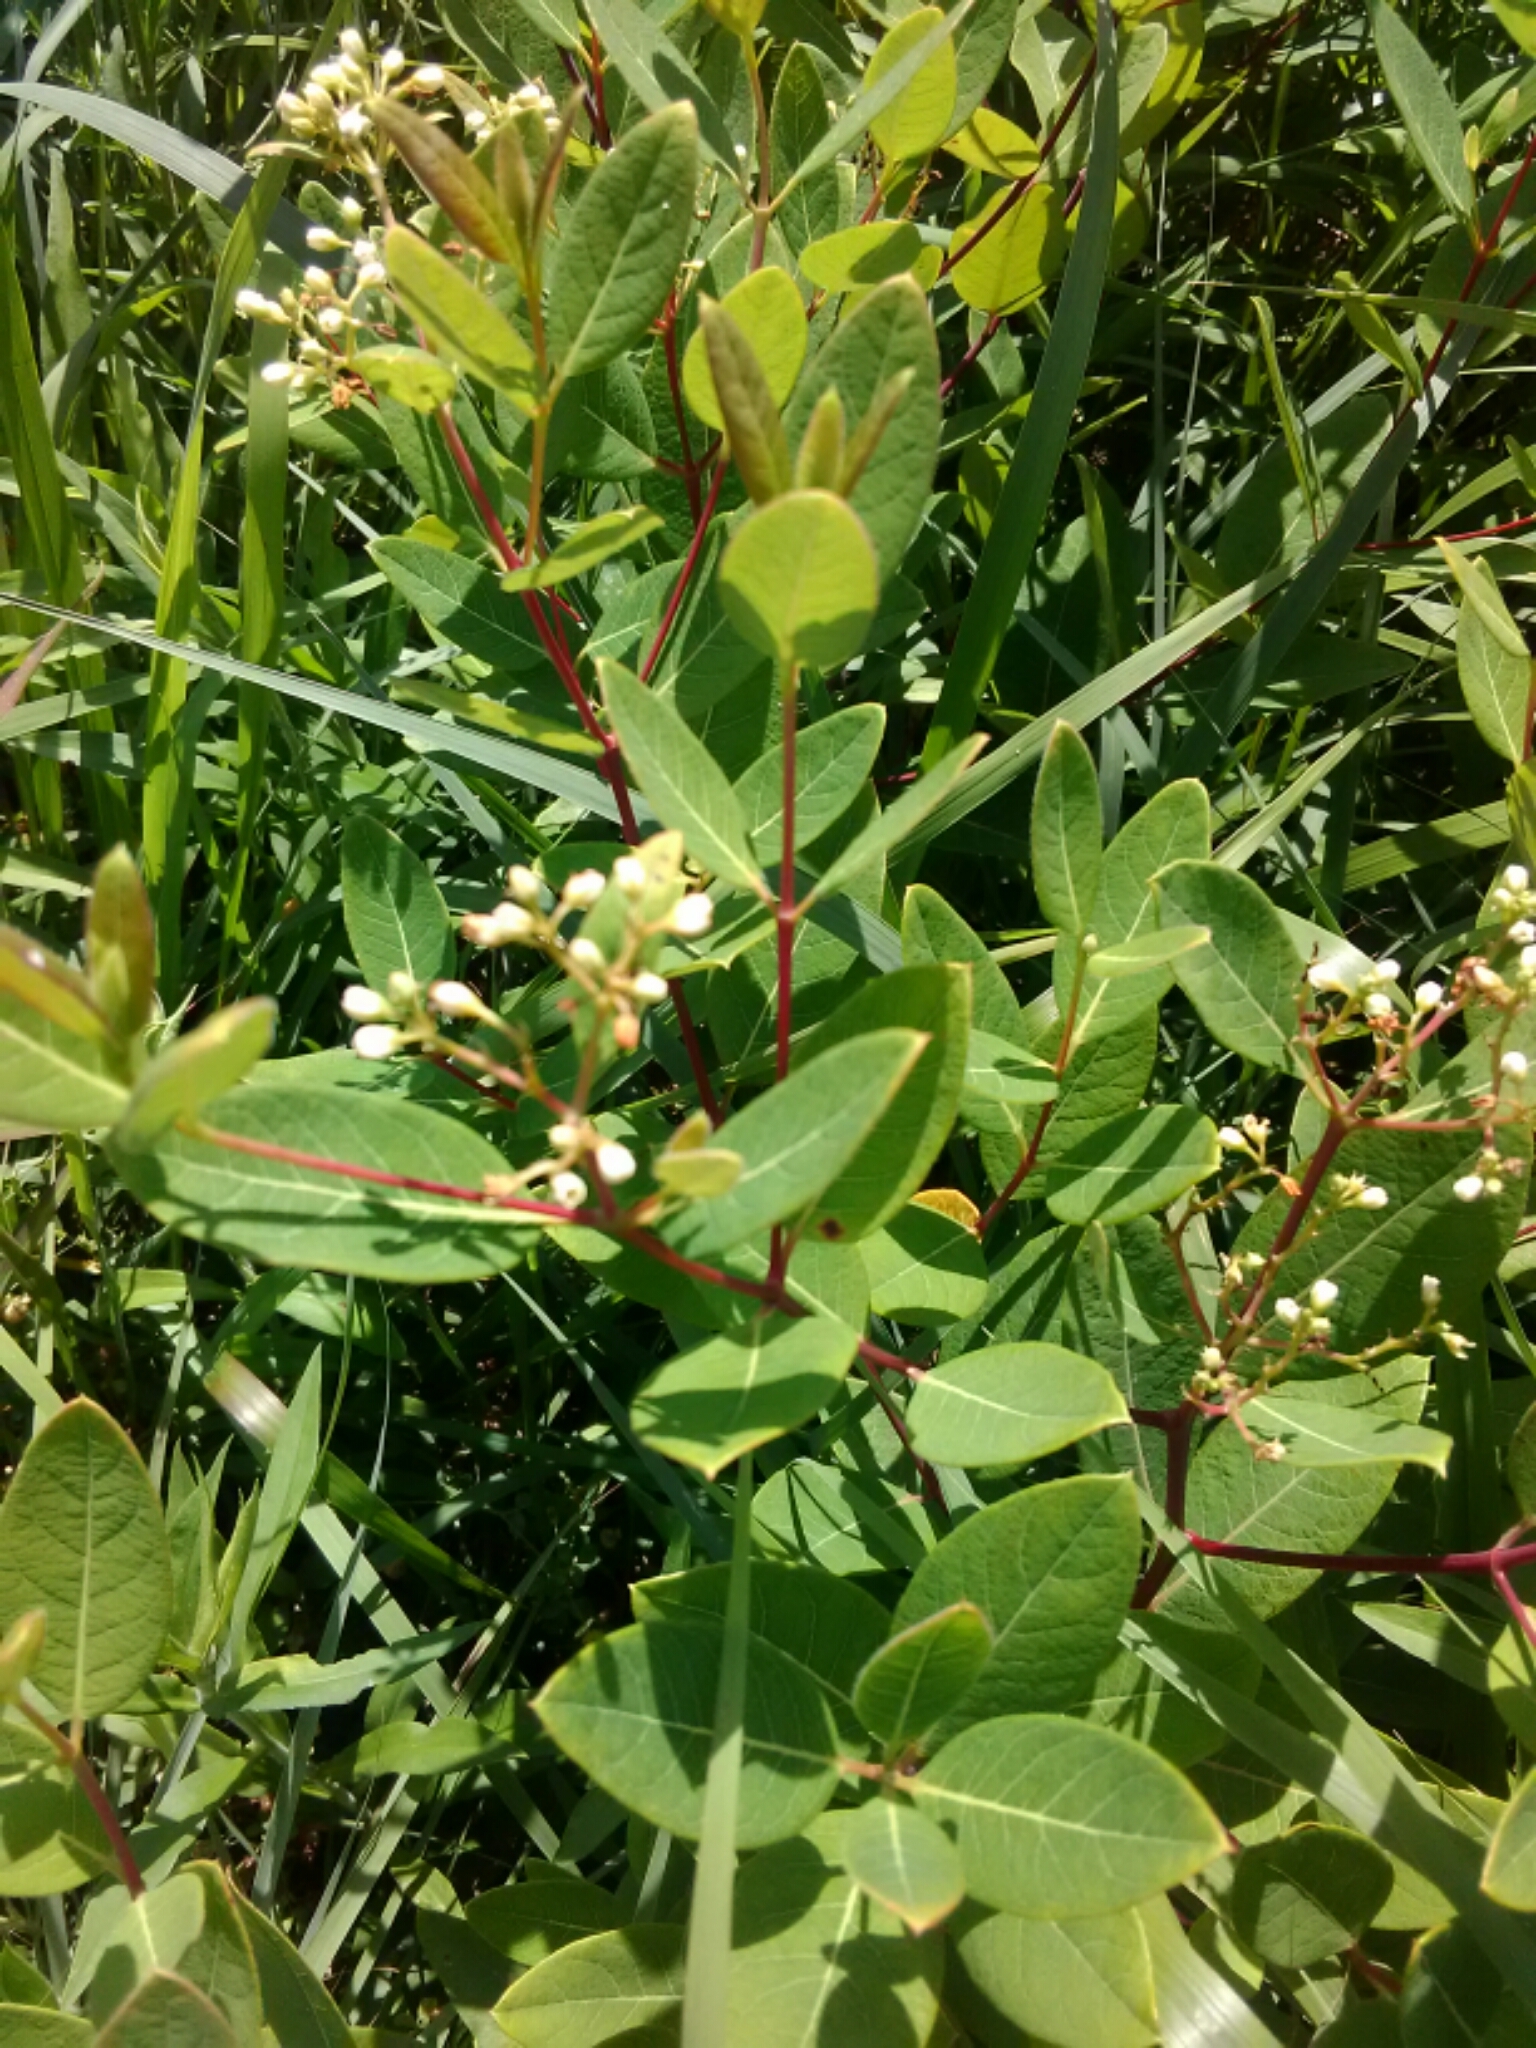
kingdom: Plantae
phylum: Tracheophyta
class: Magnoliopsida
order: Gentianales
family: Apocynaceae
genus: Apocynum
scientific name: Apocynum cannabinum
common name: Hemp dogbane
